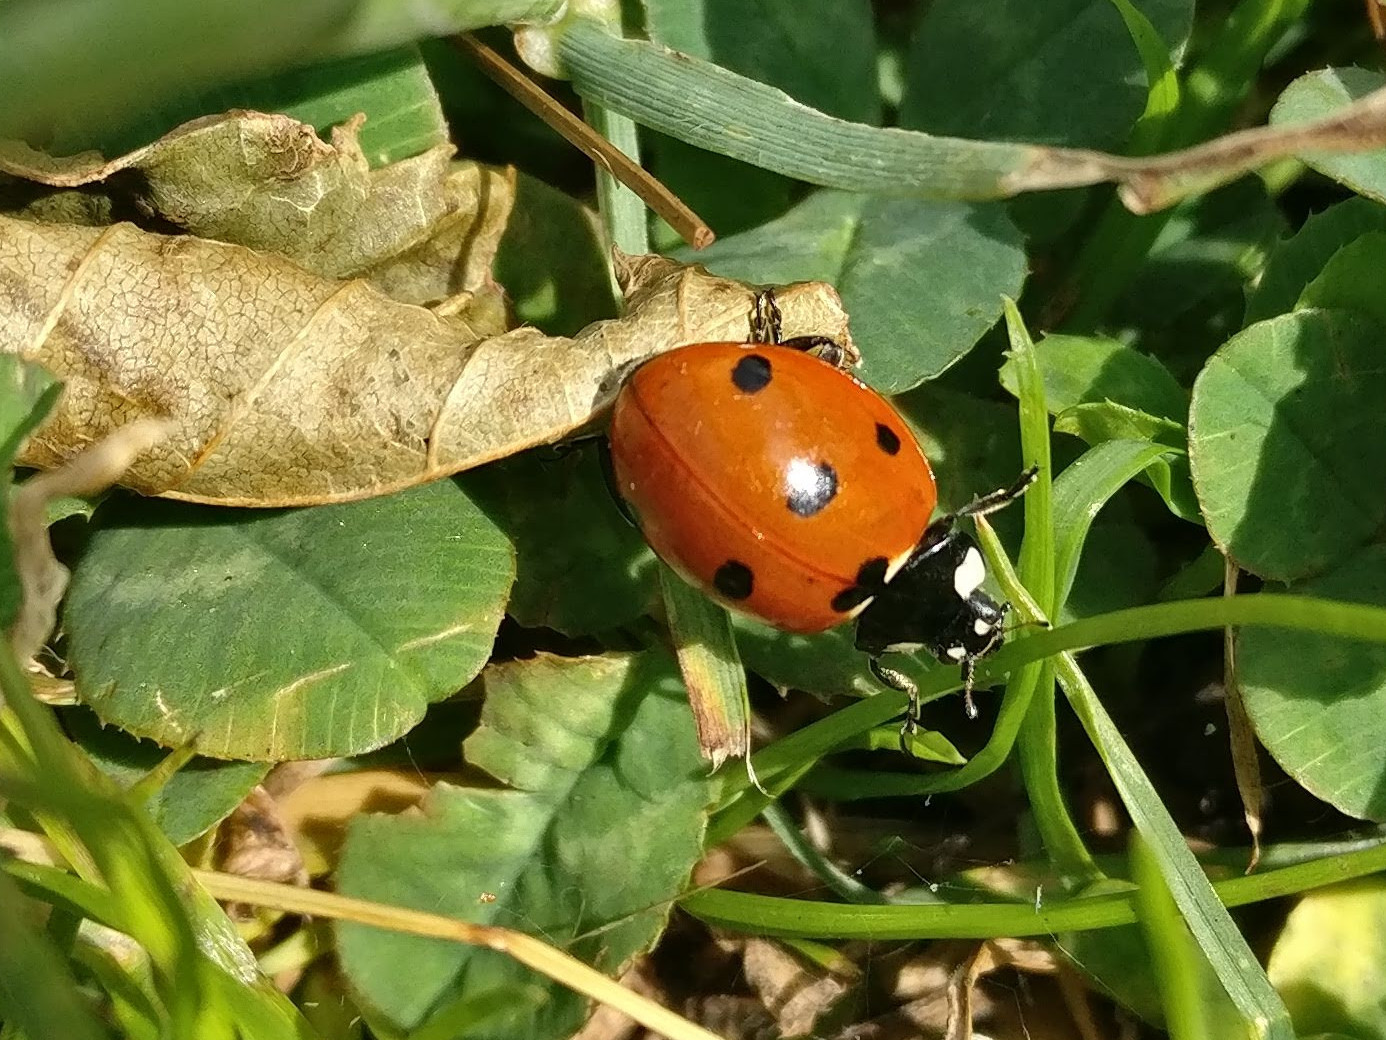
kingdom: Animalia
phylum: Arthropoda
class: Insecta
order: Coleoptera
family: Coccinellidae
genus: Coccinella
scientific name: Coccinella septempunctata
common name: Sevenspotted lady beetle
